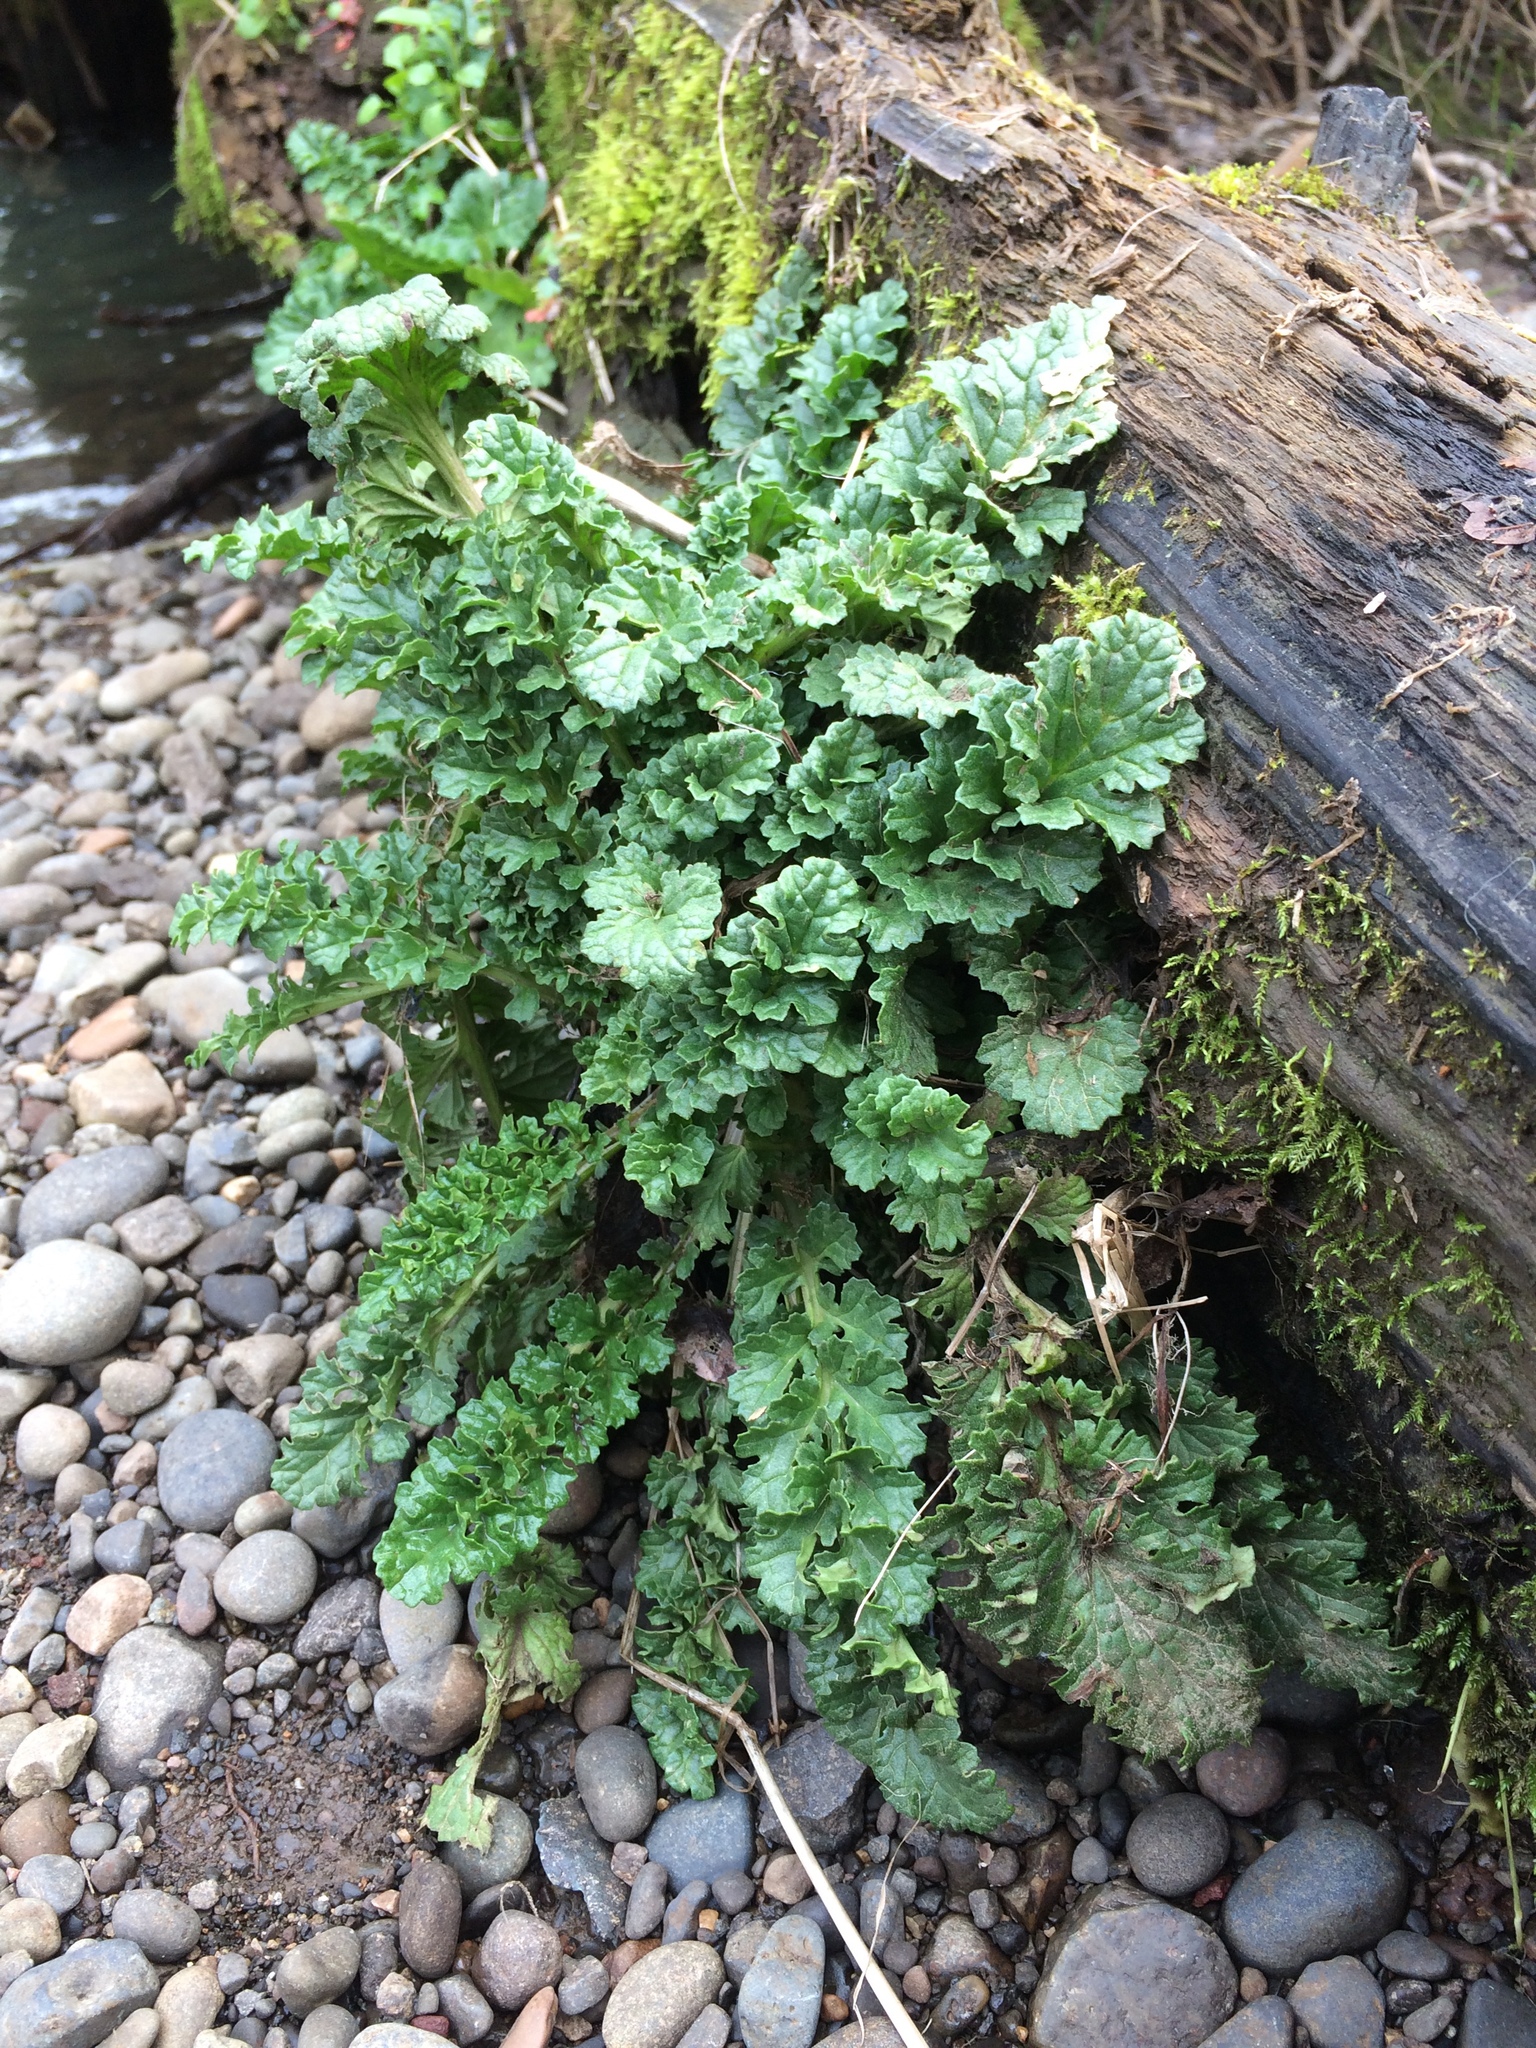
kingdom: Plantae
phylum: Tracheophyta
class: Magnoliopsida
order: Asterales
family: Asteraceae
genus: Jacobaea
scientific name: Jacobaea vulgaris
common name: Stinking willie
